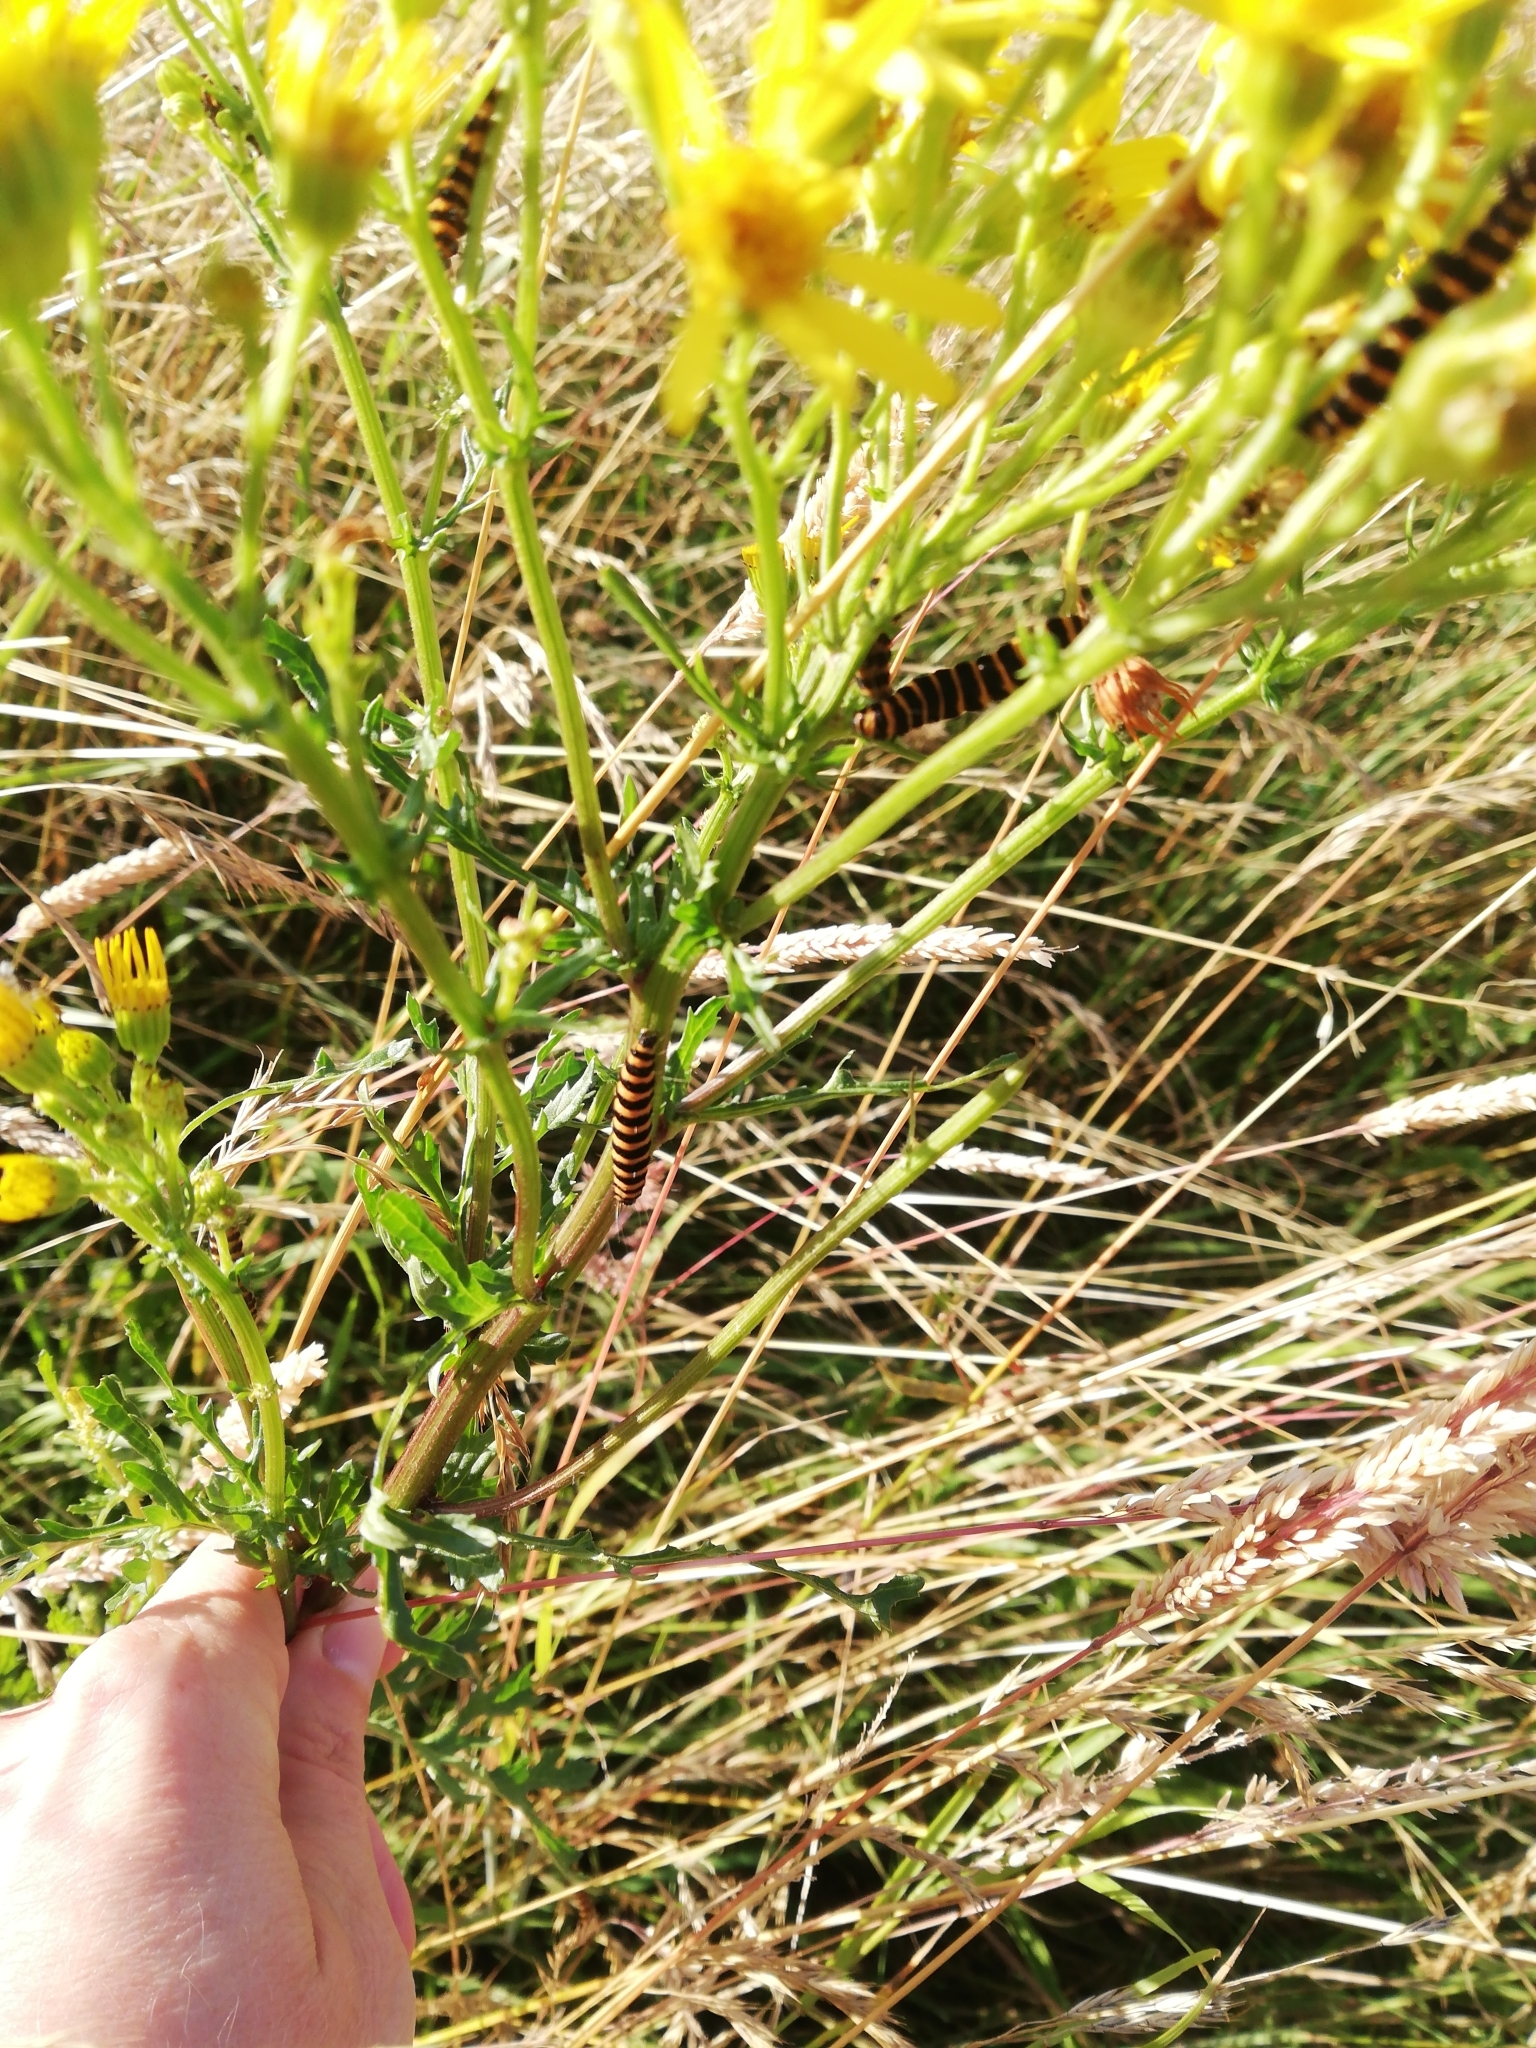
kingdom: Animalia
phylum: Arthropoda
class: Insecta
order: Lepidoptera
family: Erebidae
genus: Tyria
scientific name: Tyria jacobaeae
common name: Cinnabar
